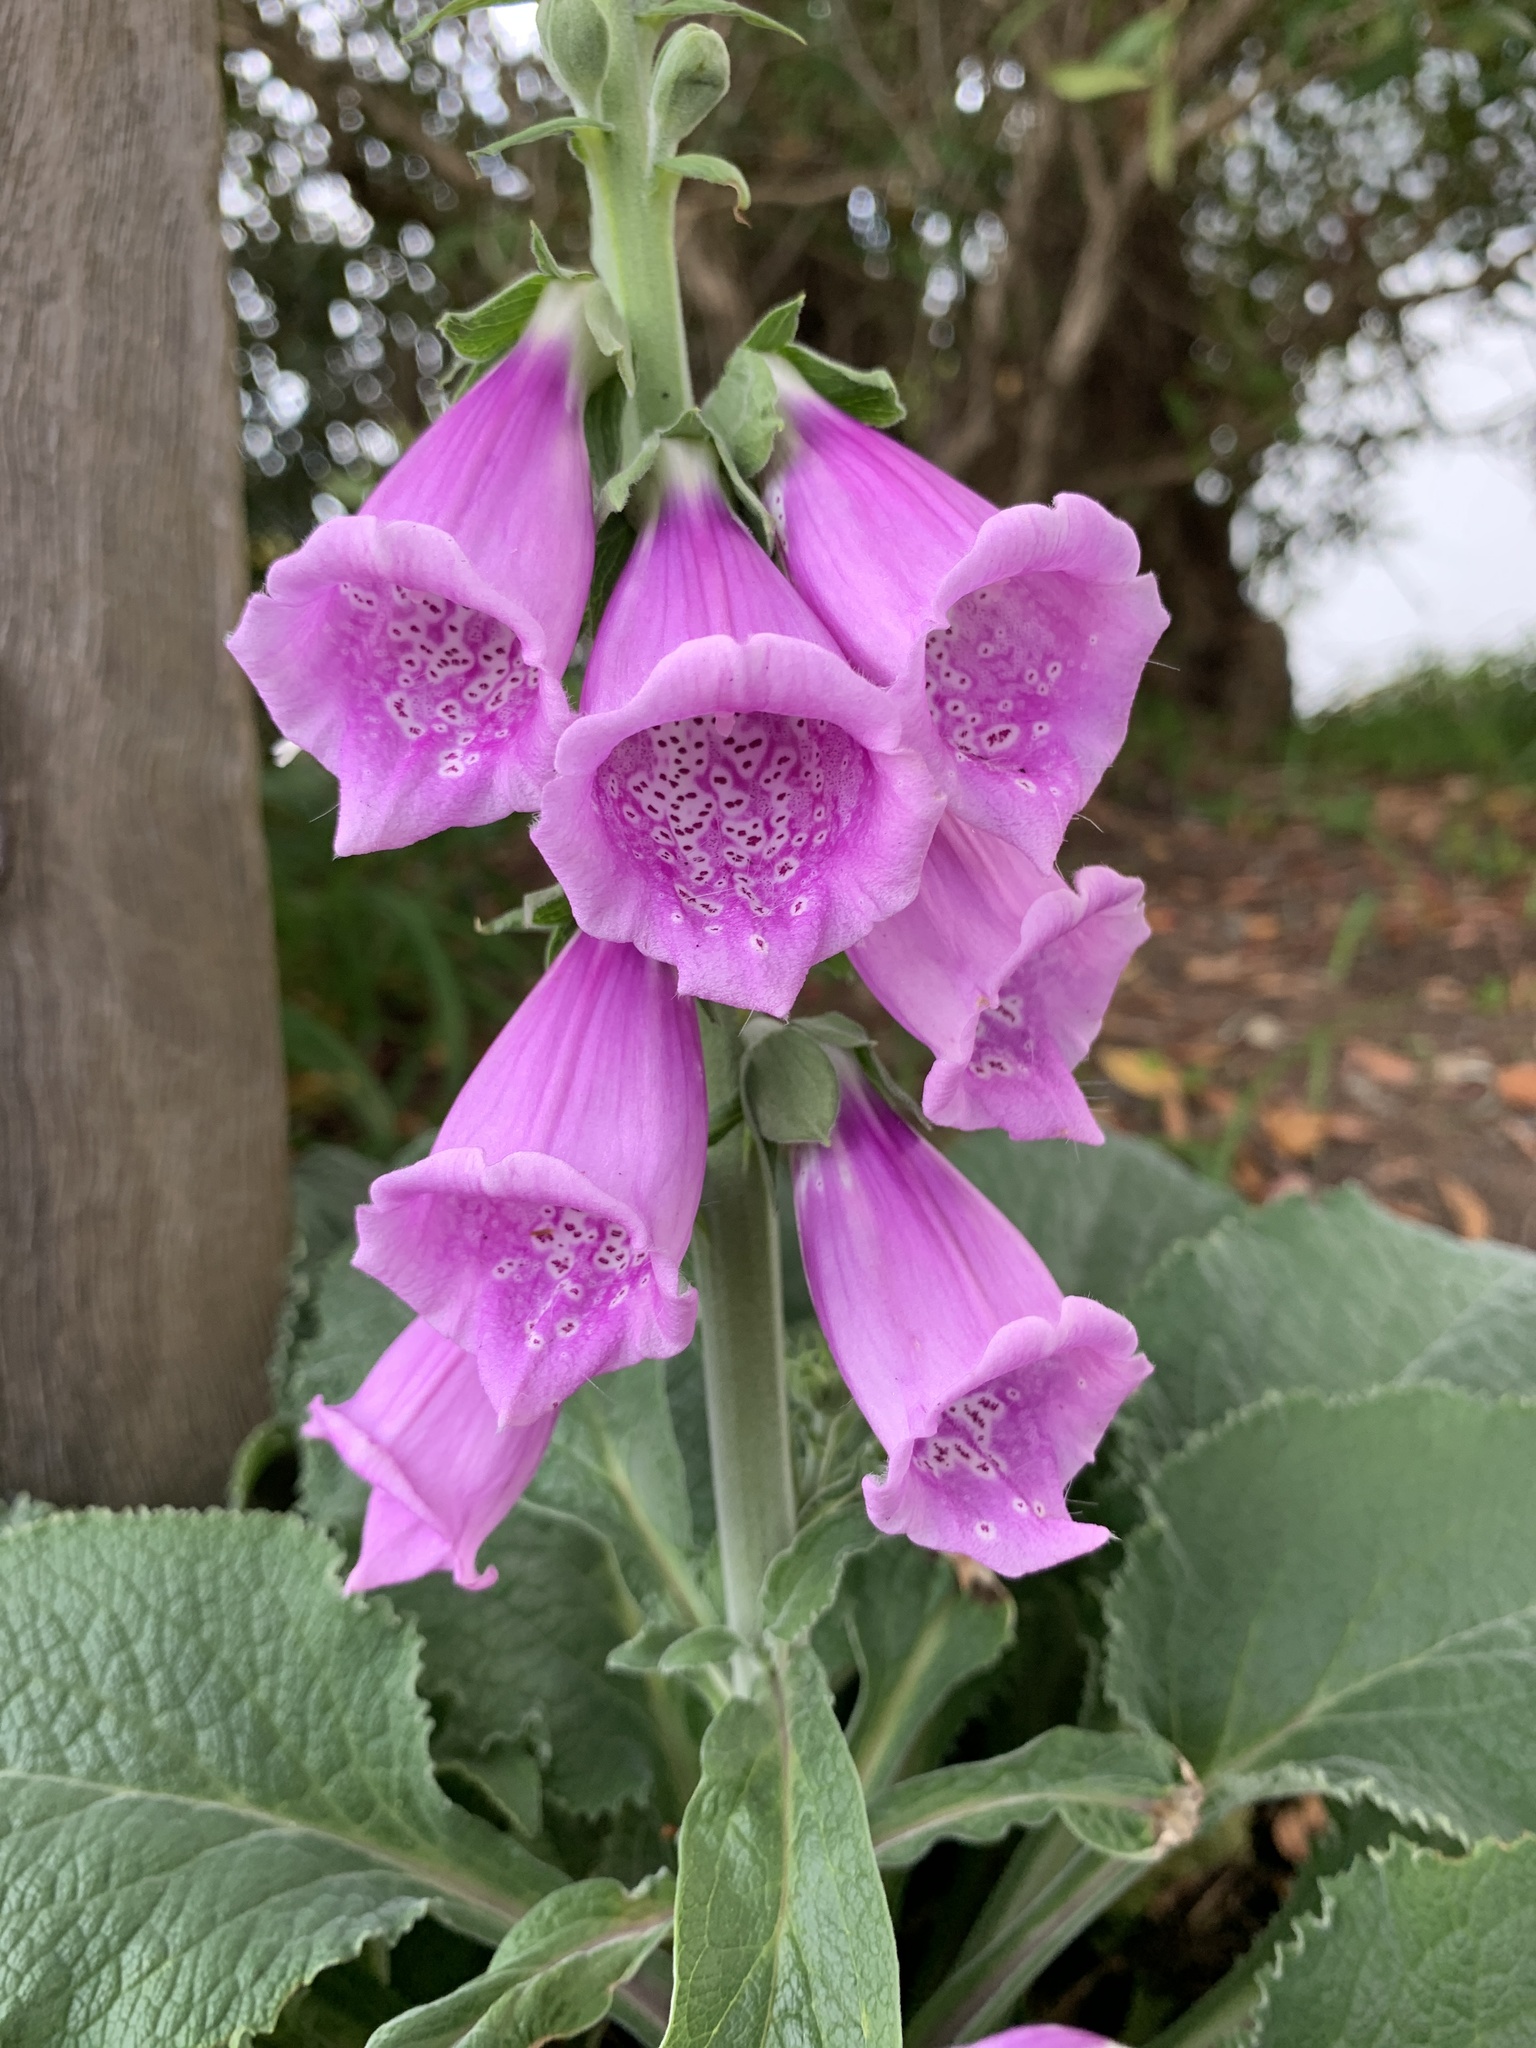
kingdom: Plantae
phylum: Tracheophyta
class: Magnoliopsida
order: Lamiales
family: Plantaginaceae
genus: Digitalis
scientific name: Digitalis purpurea
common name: Foxglove
